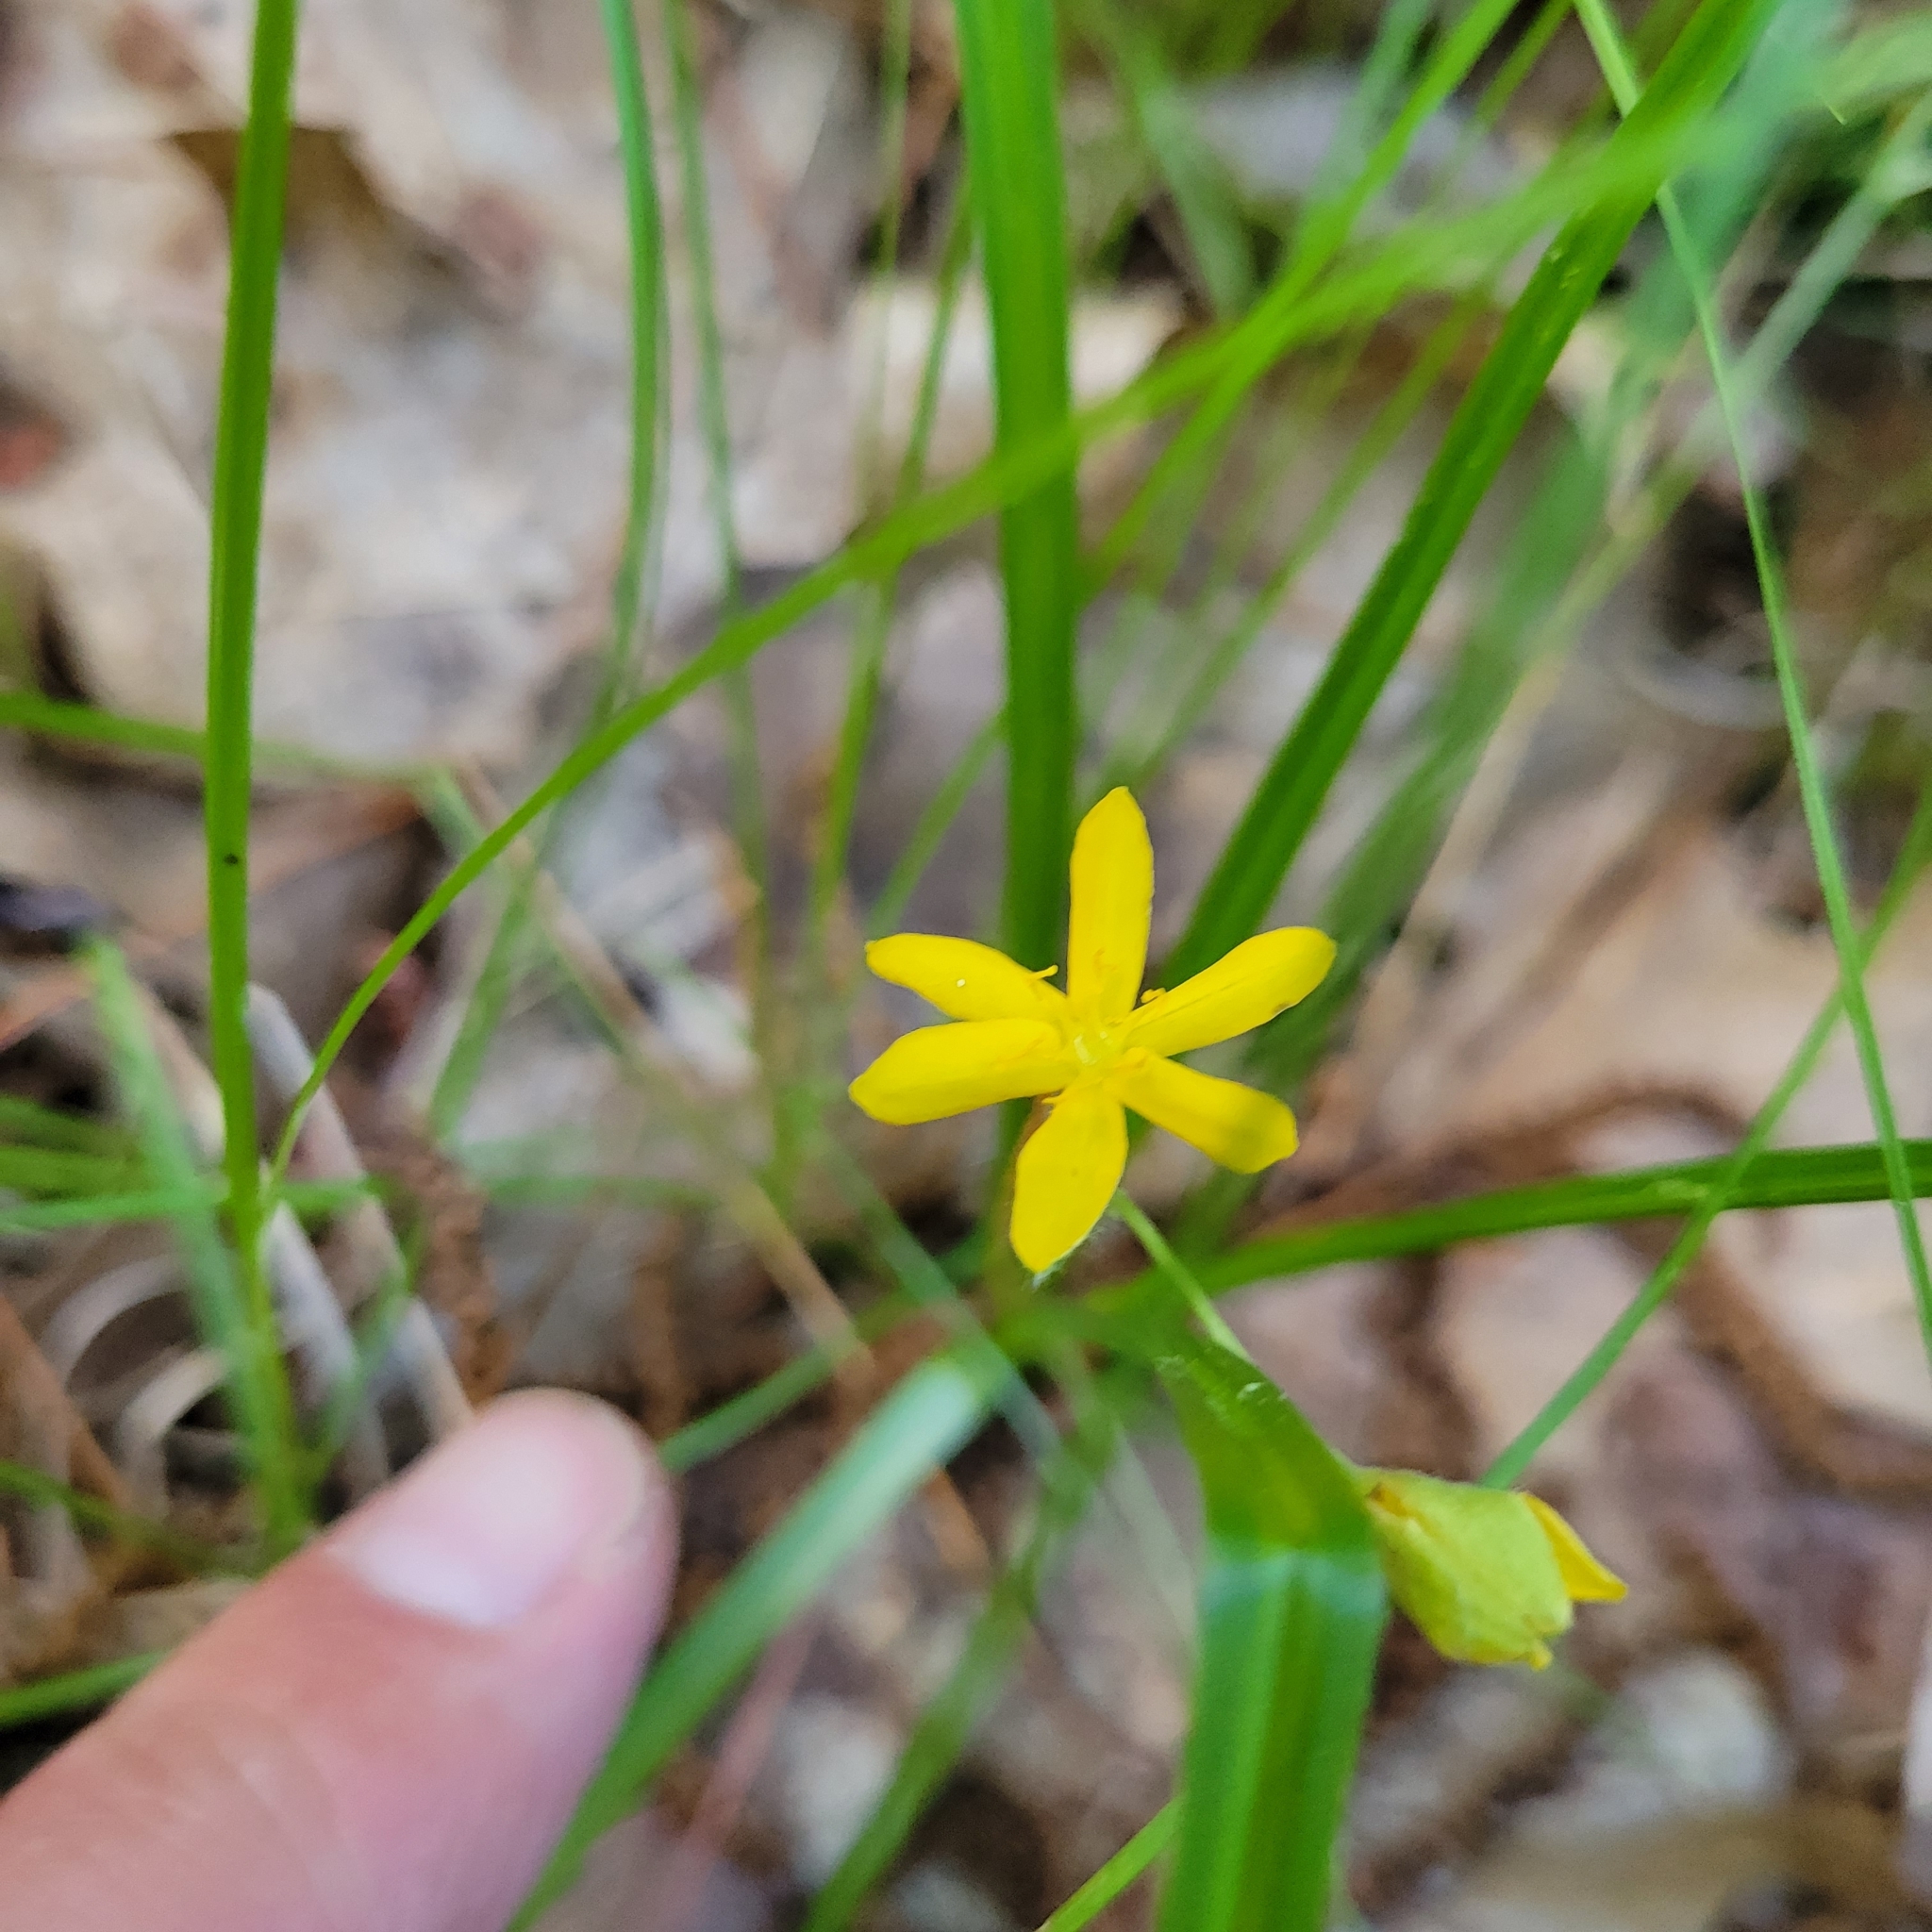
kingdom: Plantae
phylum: Tracheophyta
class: Liliopsida
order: Asparagales
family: Hypoxidaceae
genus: Hypoxis
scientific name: Hypoxis hirsuta
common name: Common goldstar
